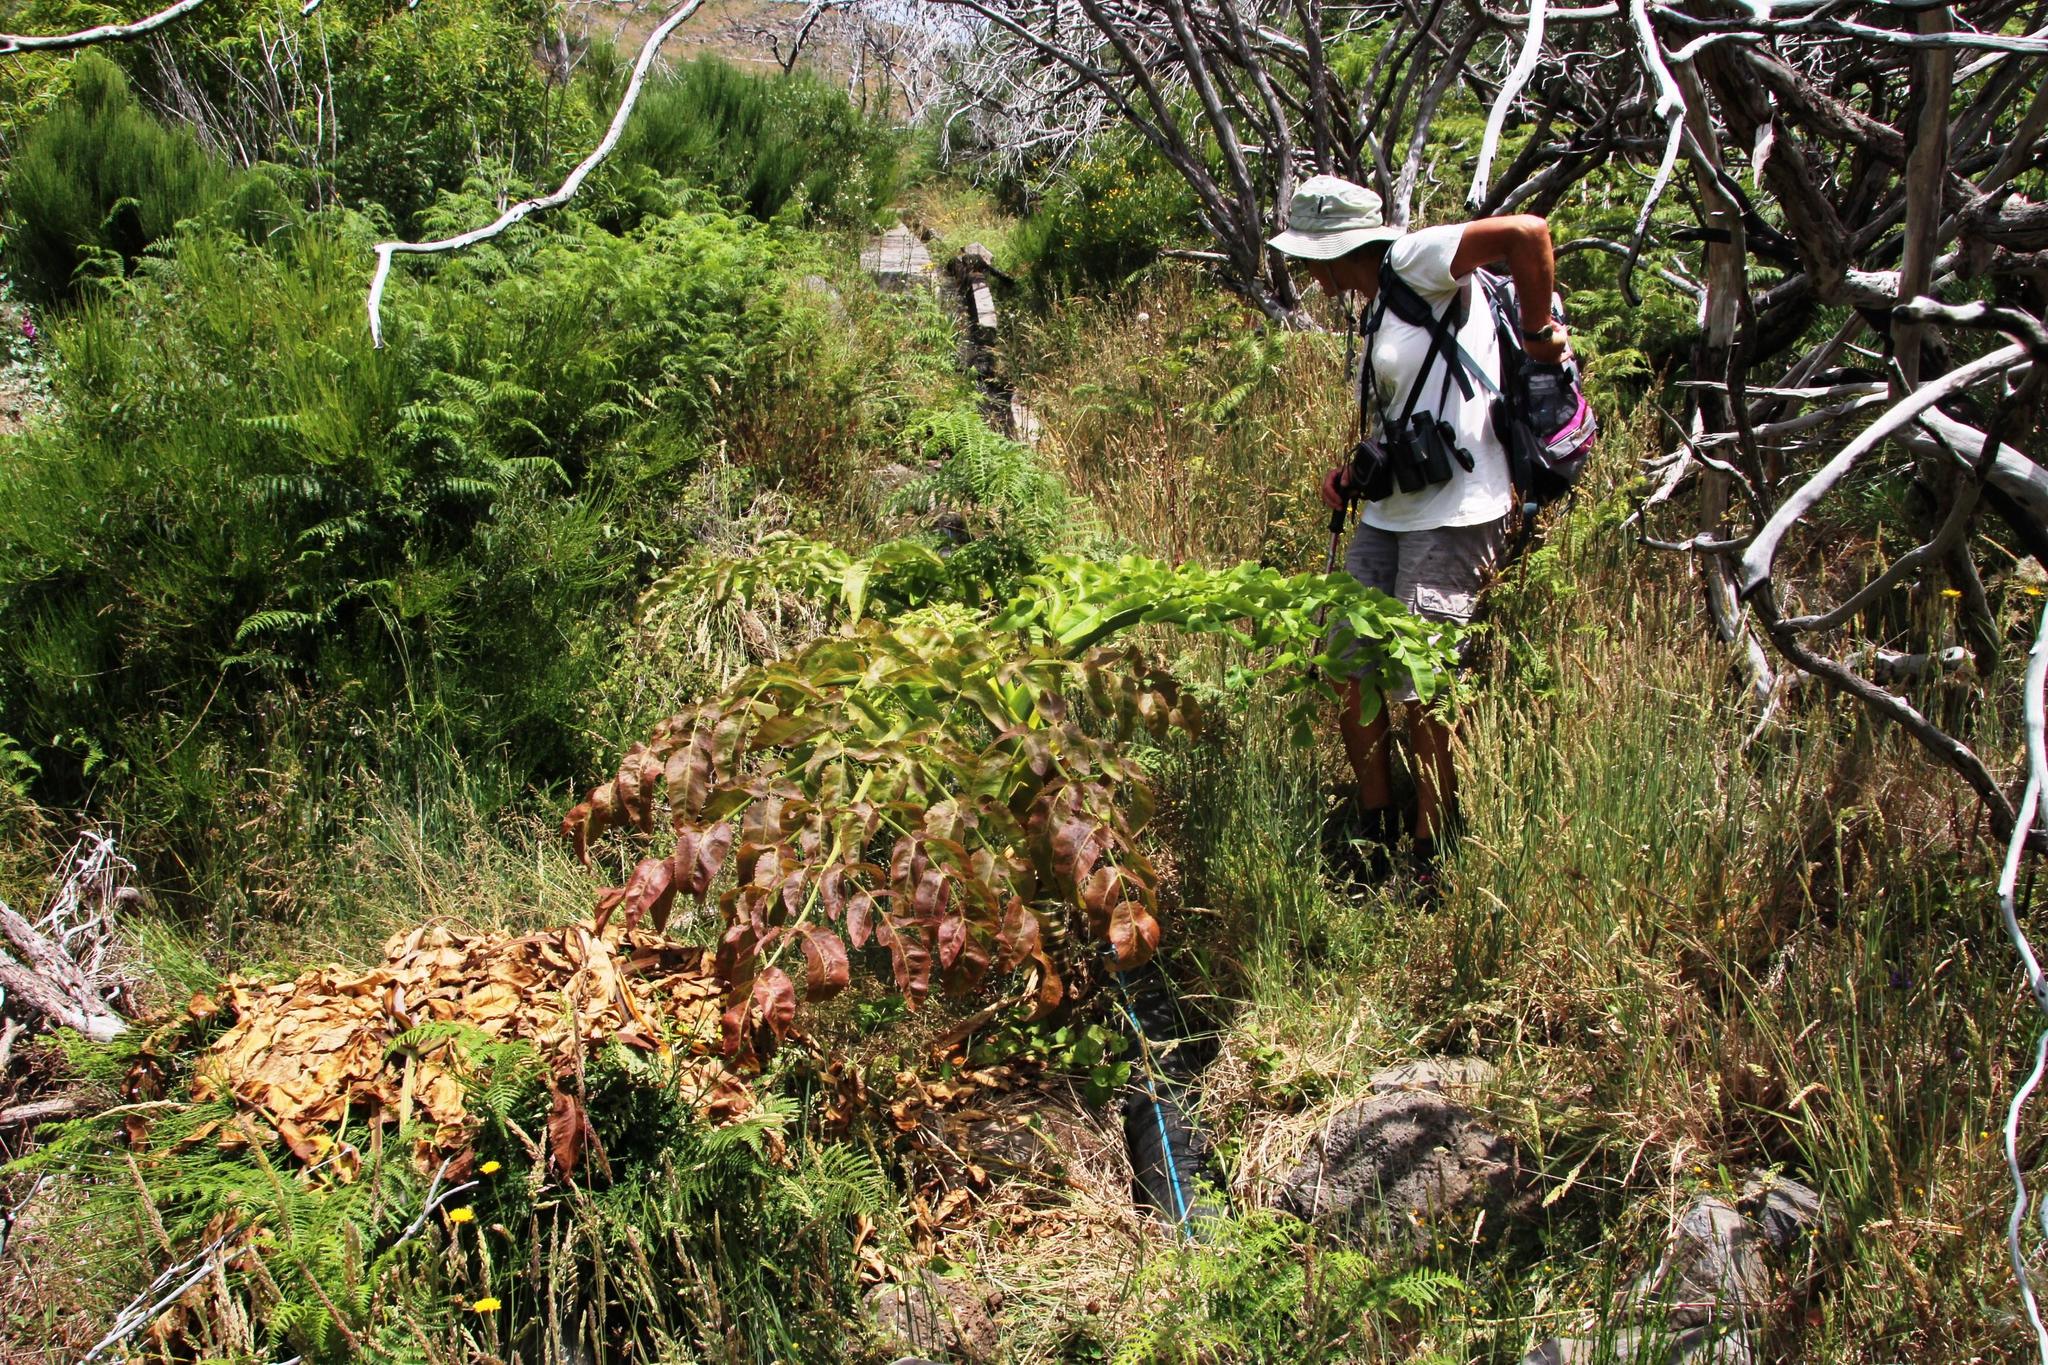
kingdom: Plantae
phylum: Tracheophyta
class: Magnoliopsida
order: Apiales
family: Apiaceae
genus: Daucus
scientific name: Daucus decipiens
